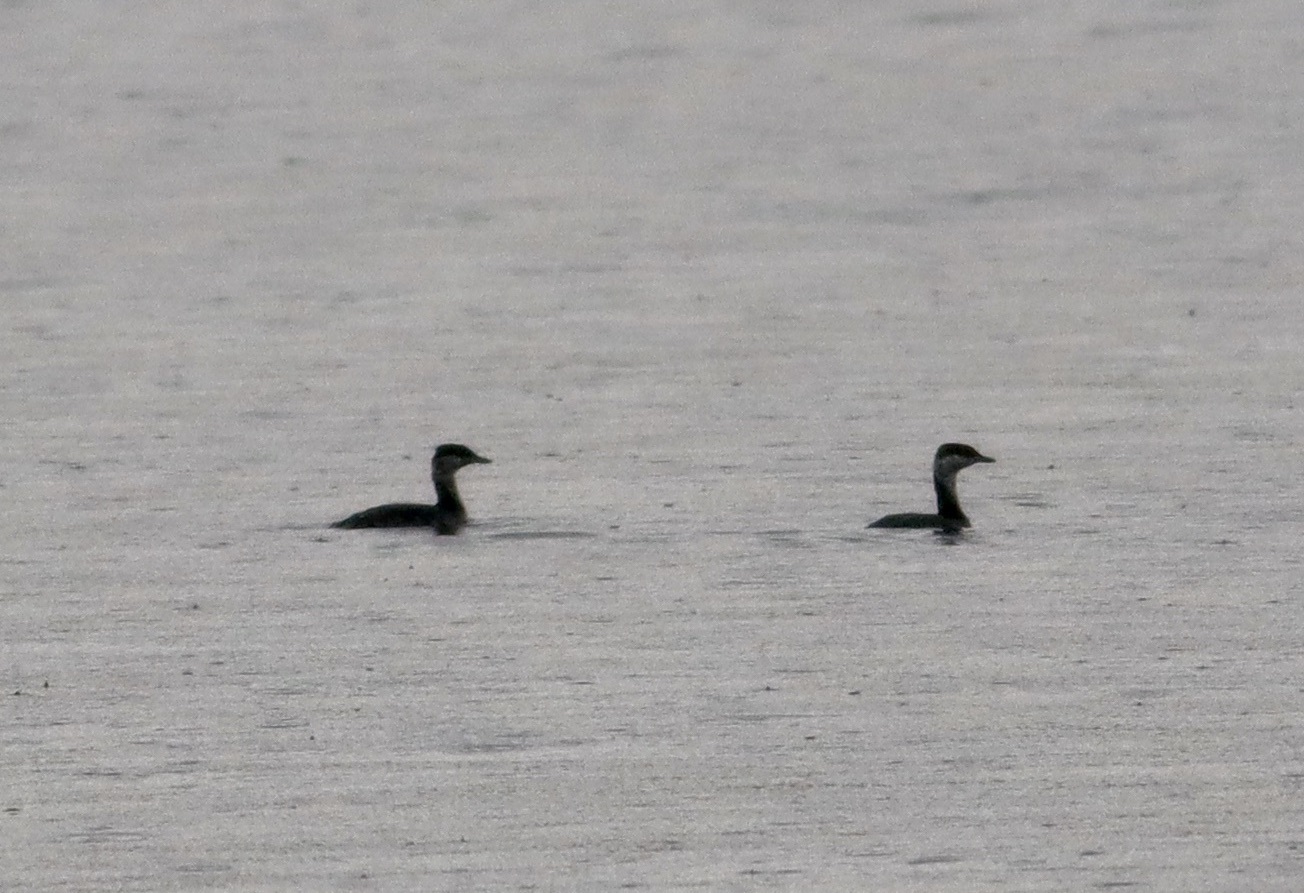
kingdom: Animalia
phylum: Chordata
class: Aves
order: Podicipediformes
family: Podicipedidae
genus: Podiceps
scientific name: Podiceps auritus
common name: Horned grebe
